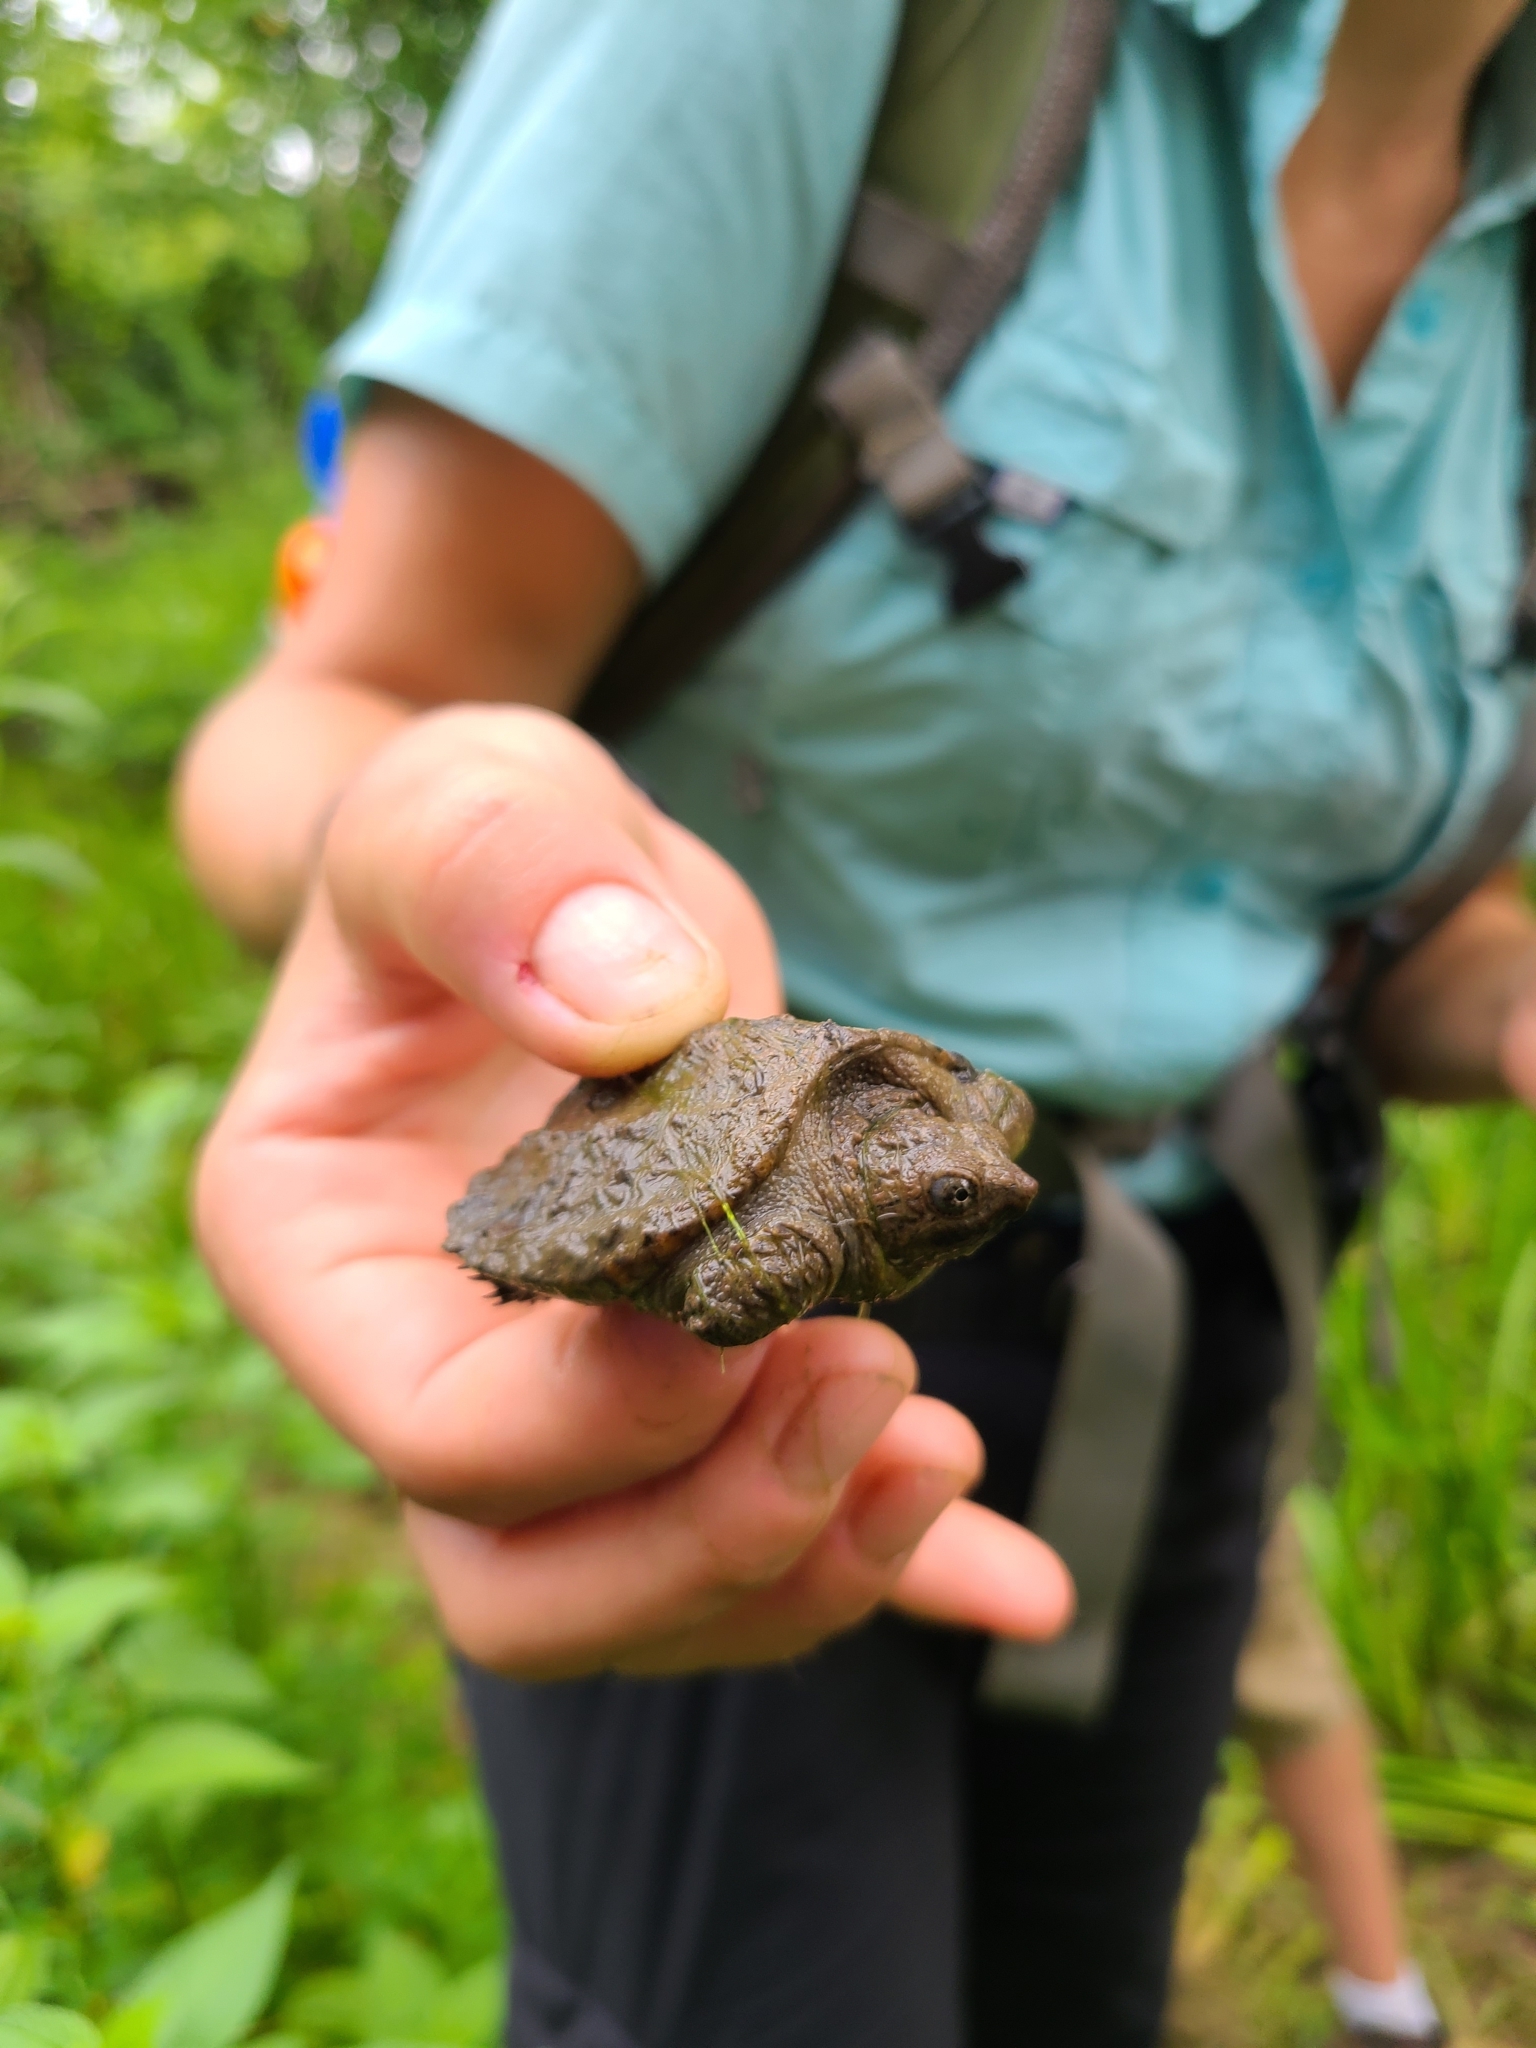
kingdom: Animalia
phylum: Chordata
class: Testudines
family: Chelydridae
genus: Chelydra
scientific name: Chelydra serpentina
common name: Common snapping turtle
